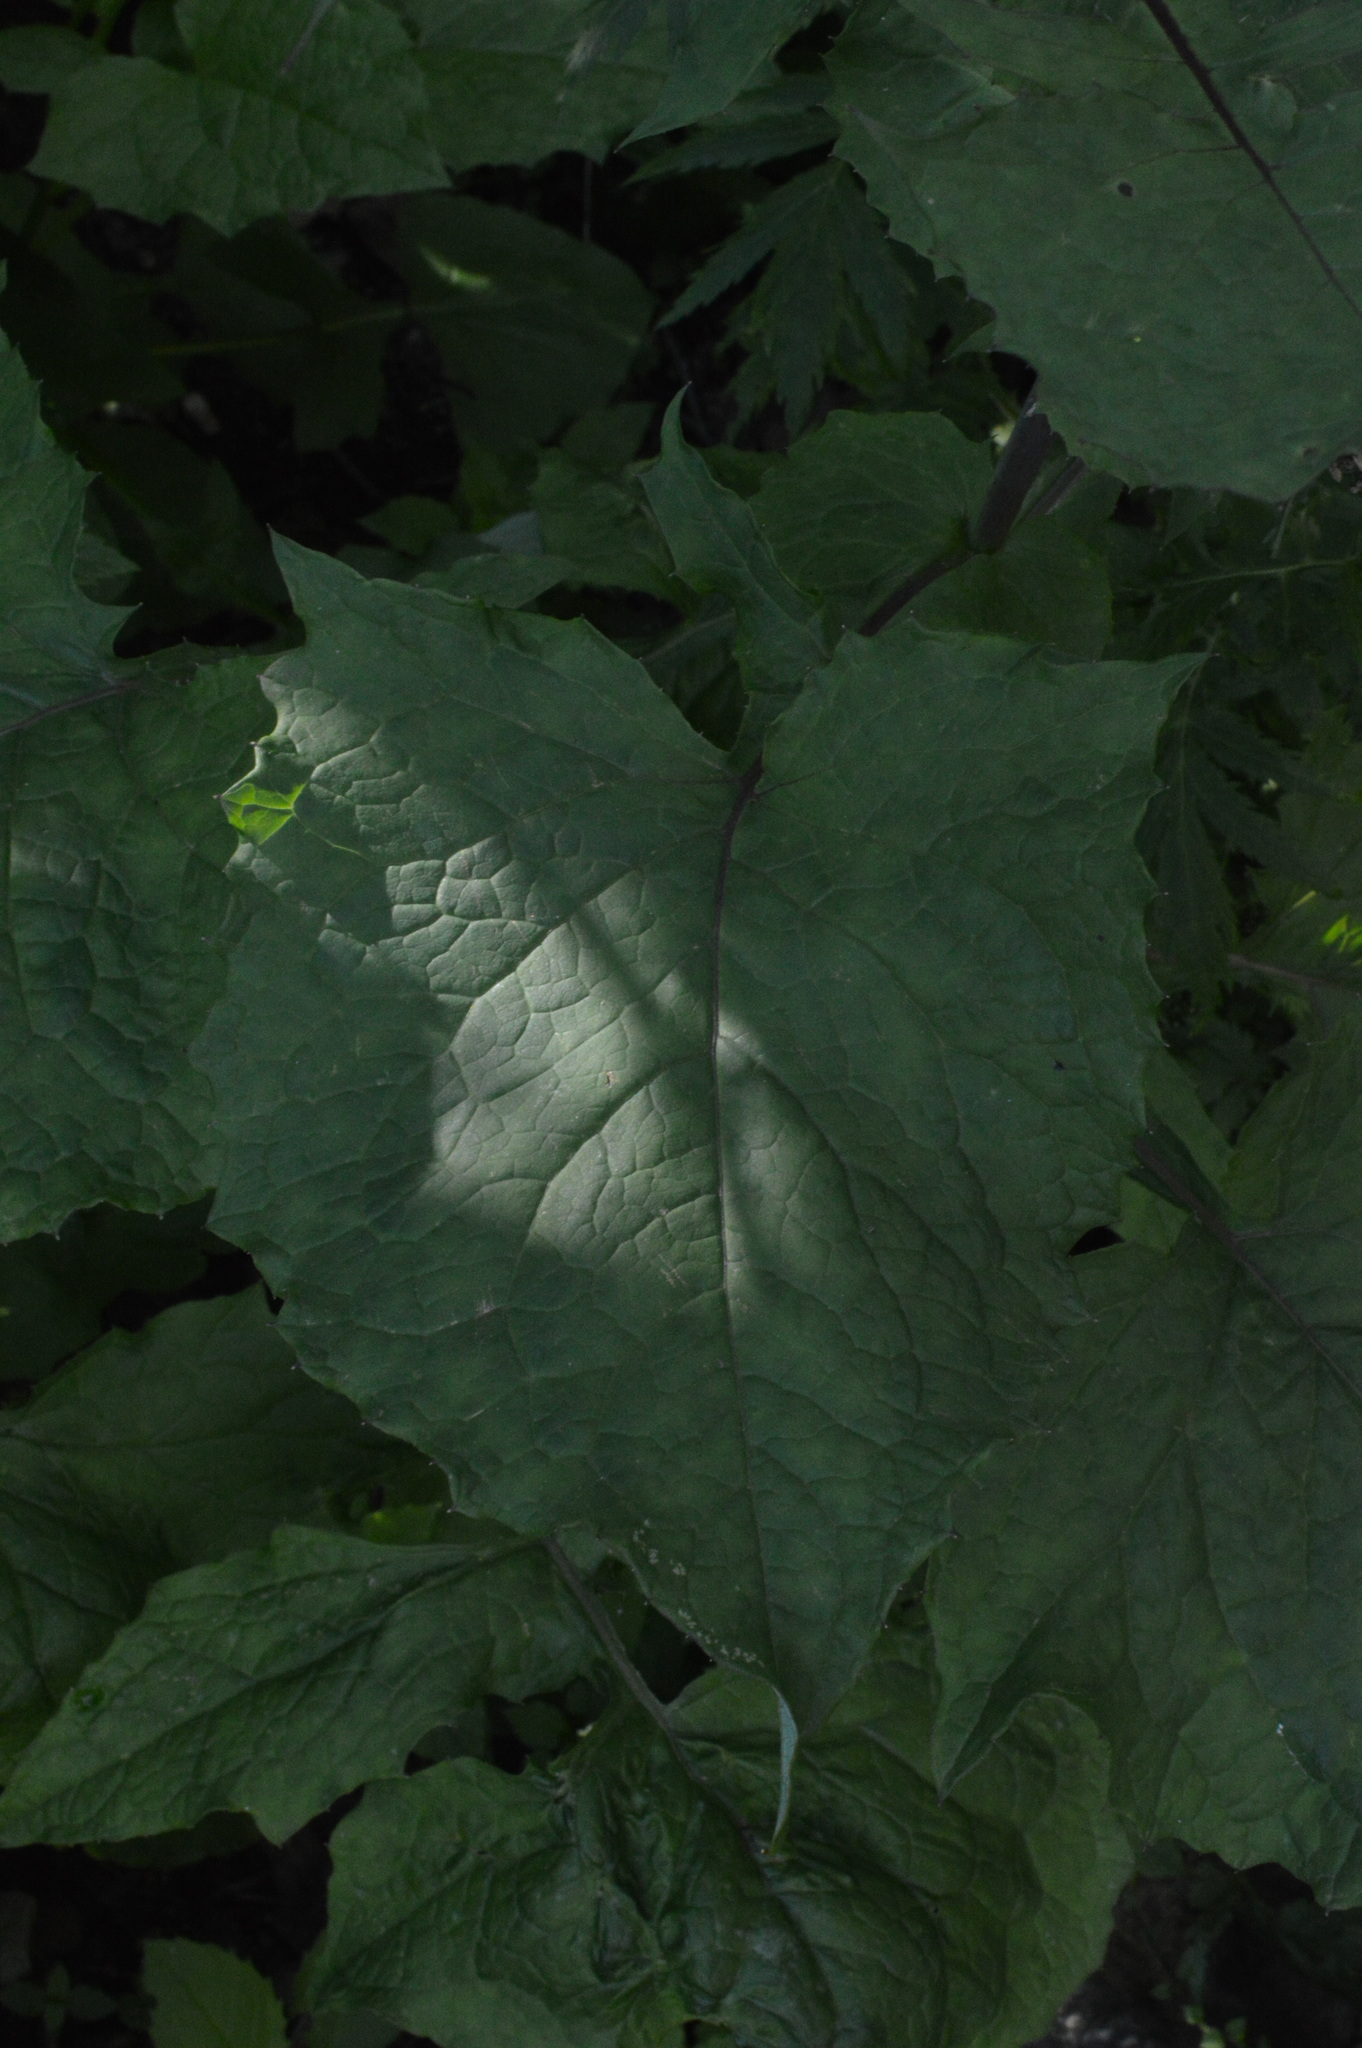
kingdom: Plantae
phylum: Tracheophyta
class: Magnoliopsida
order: Asterales
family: Asteraceae
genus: Cicerbita
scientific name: Cicerbita alpina
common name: Alpine blue-sow-thistle
